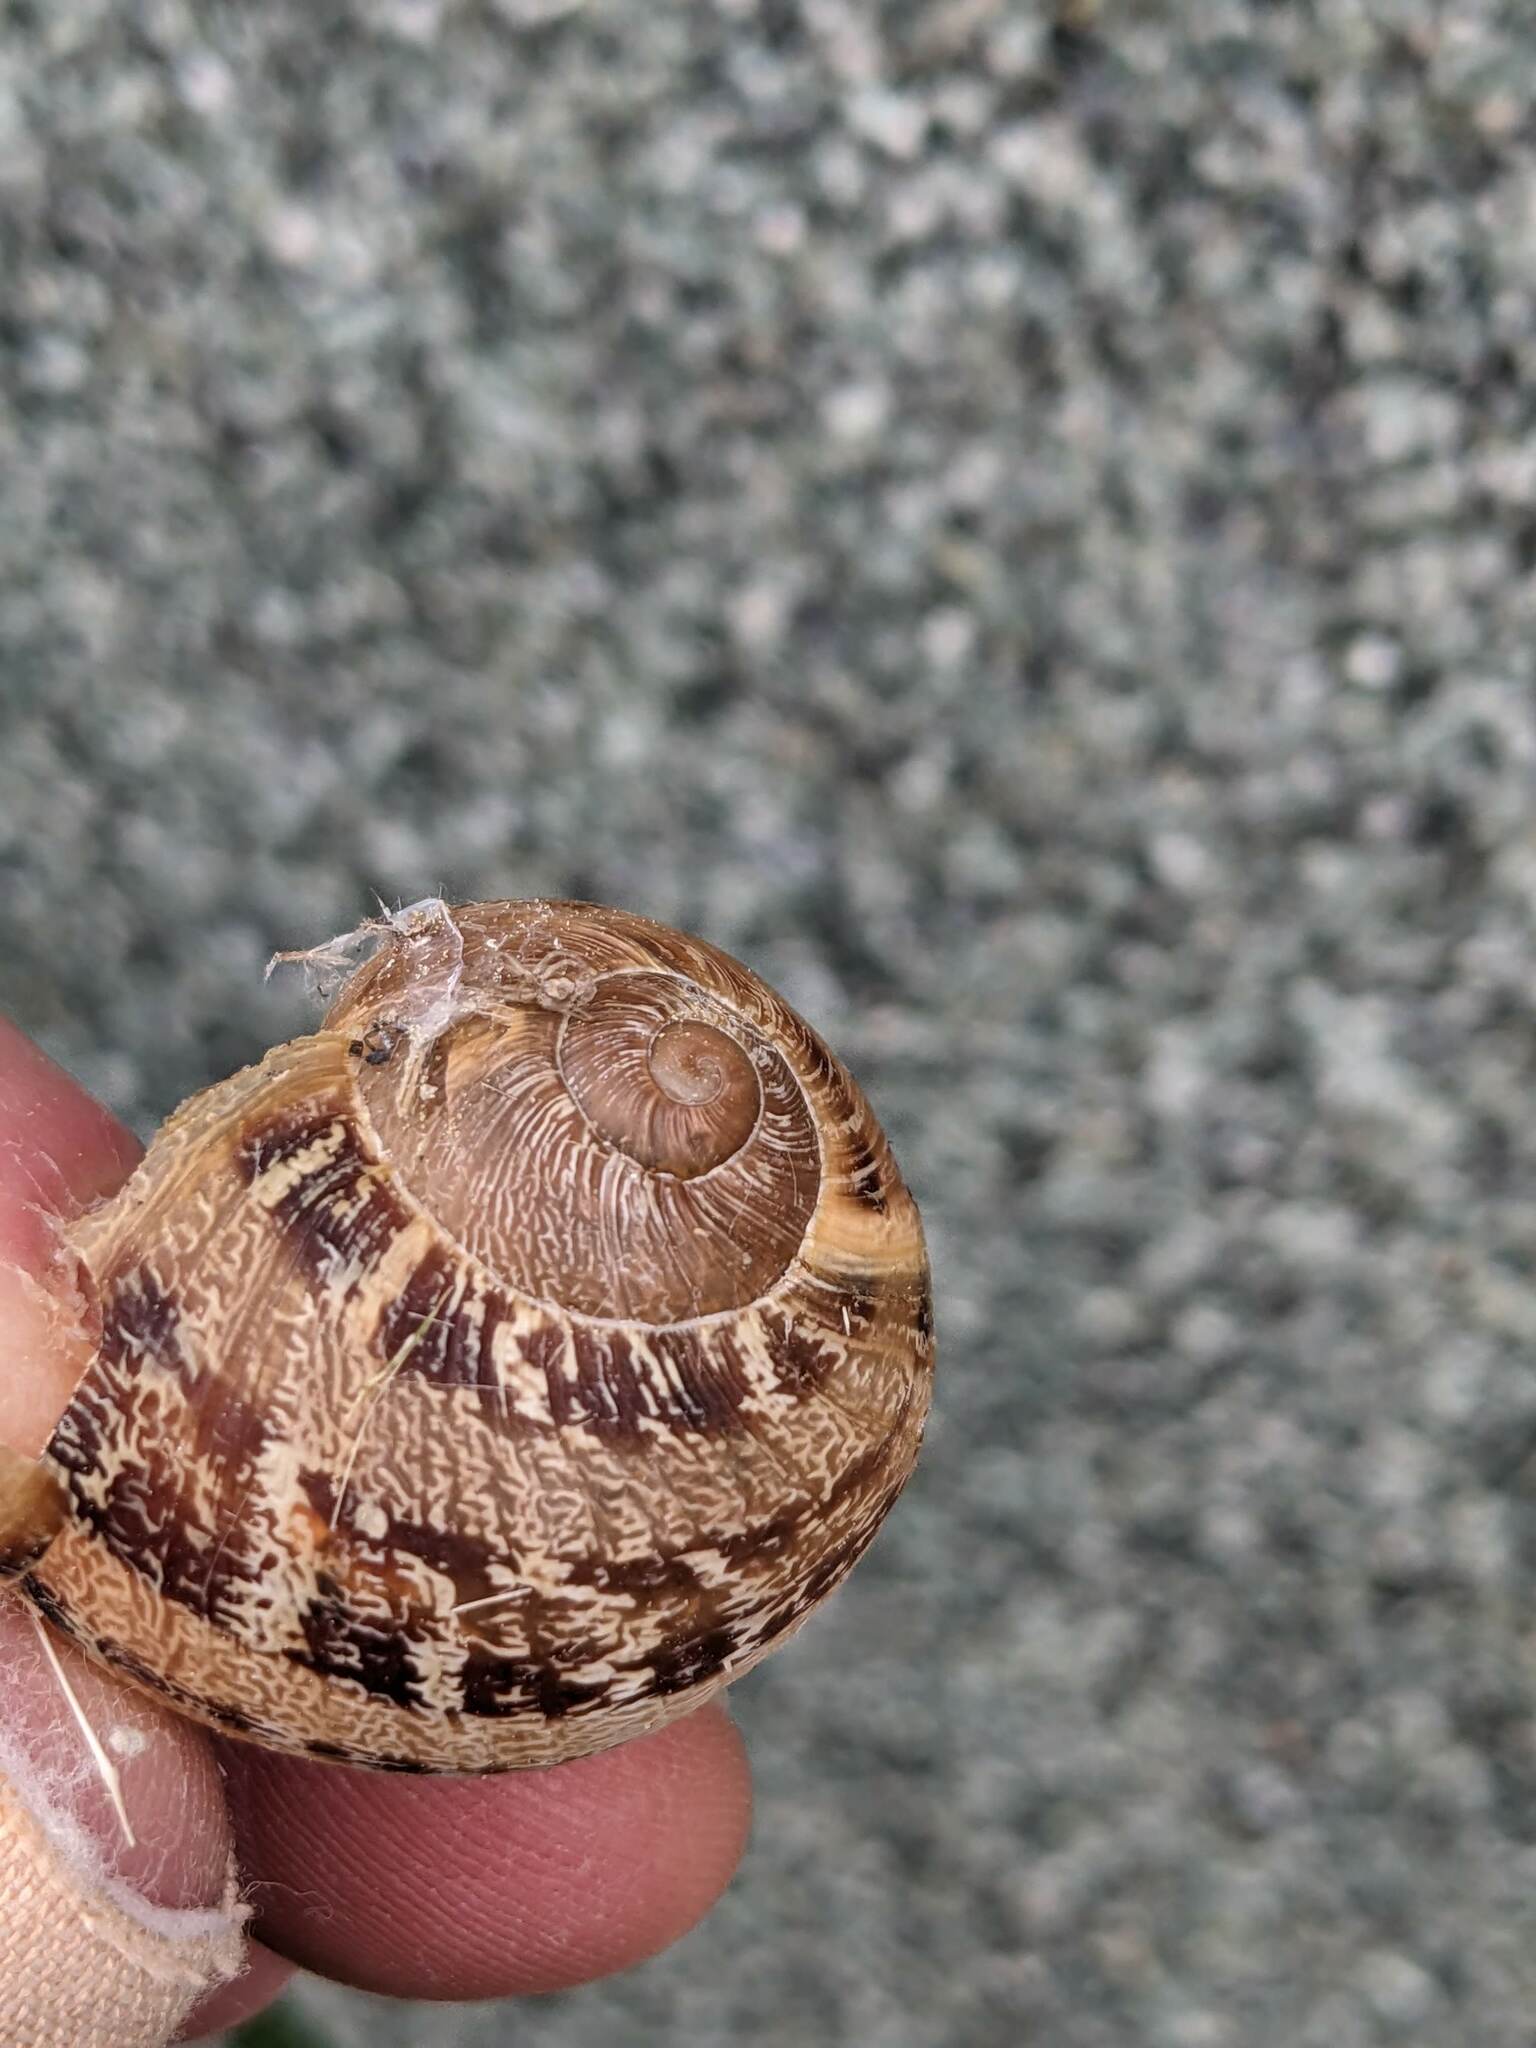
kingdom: Animalia
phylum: Mollusca
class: Gastropoda
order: Stylommatophora
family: Helicidae
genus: Cornu
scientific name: Cornu aspersum
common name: Brown garden snail
